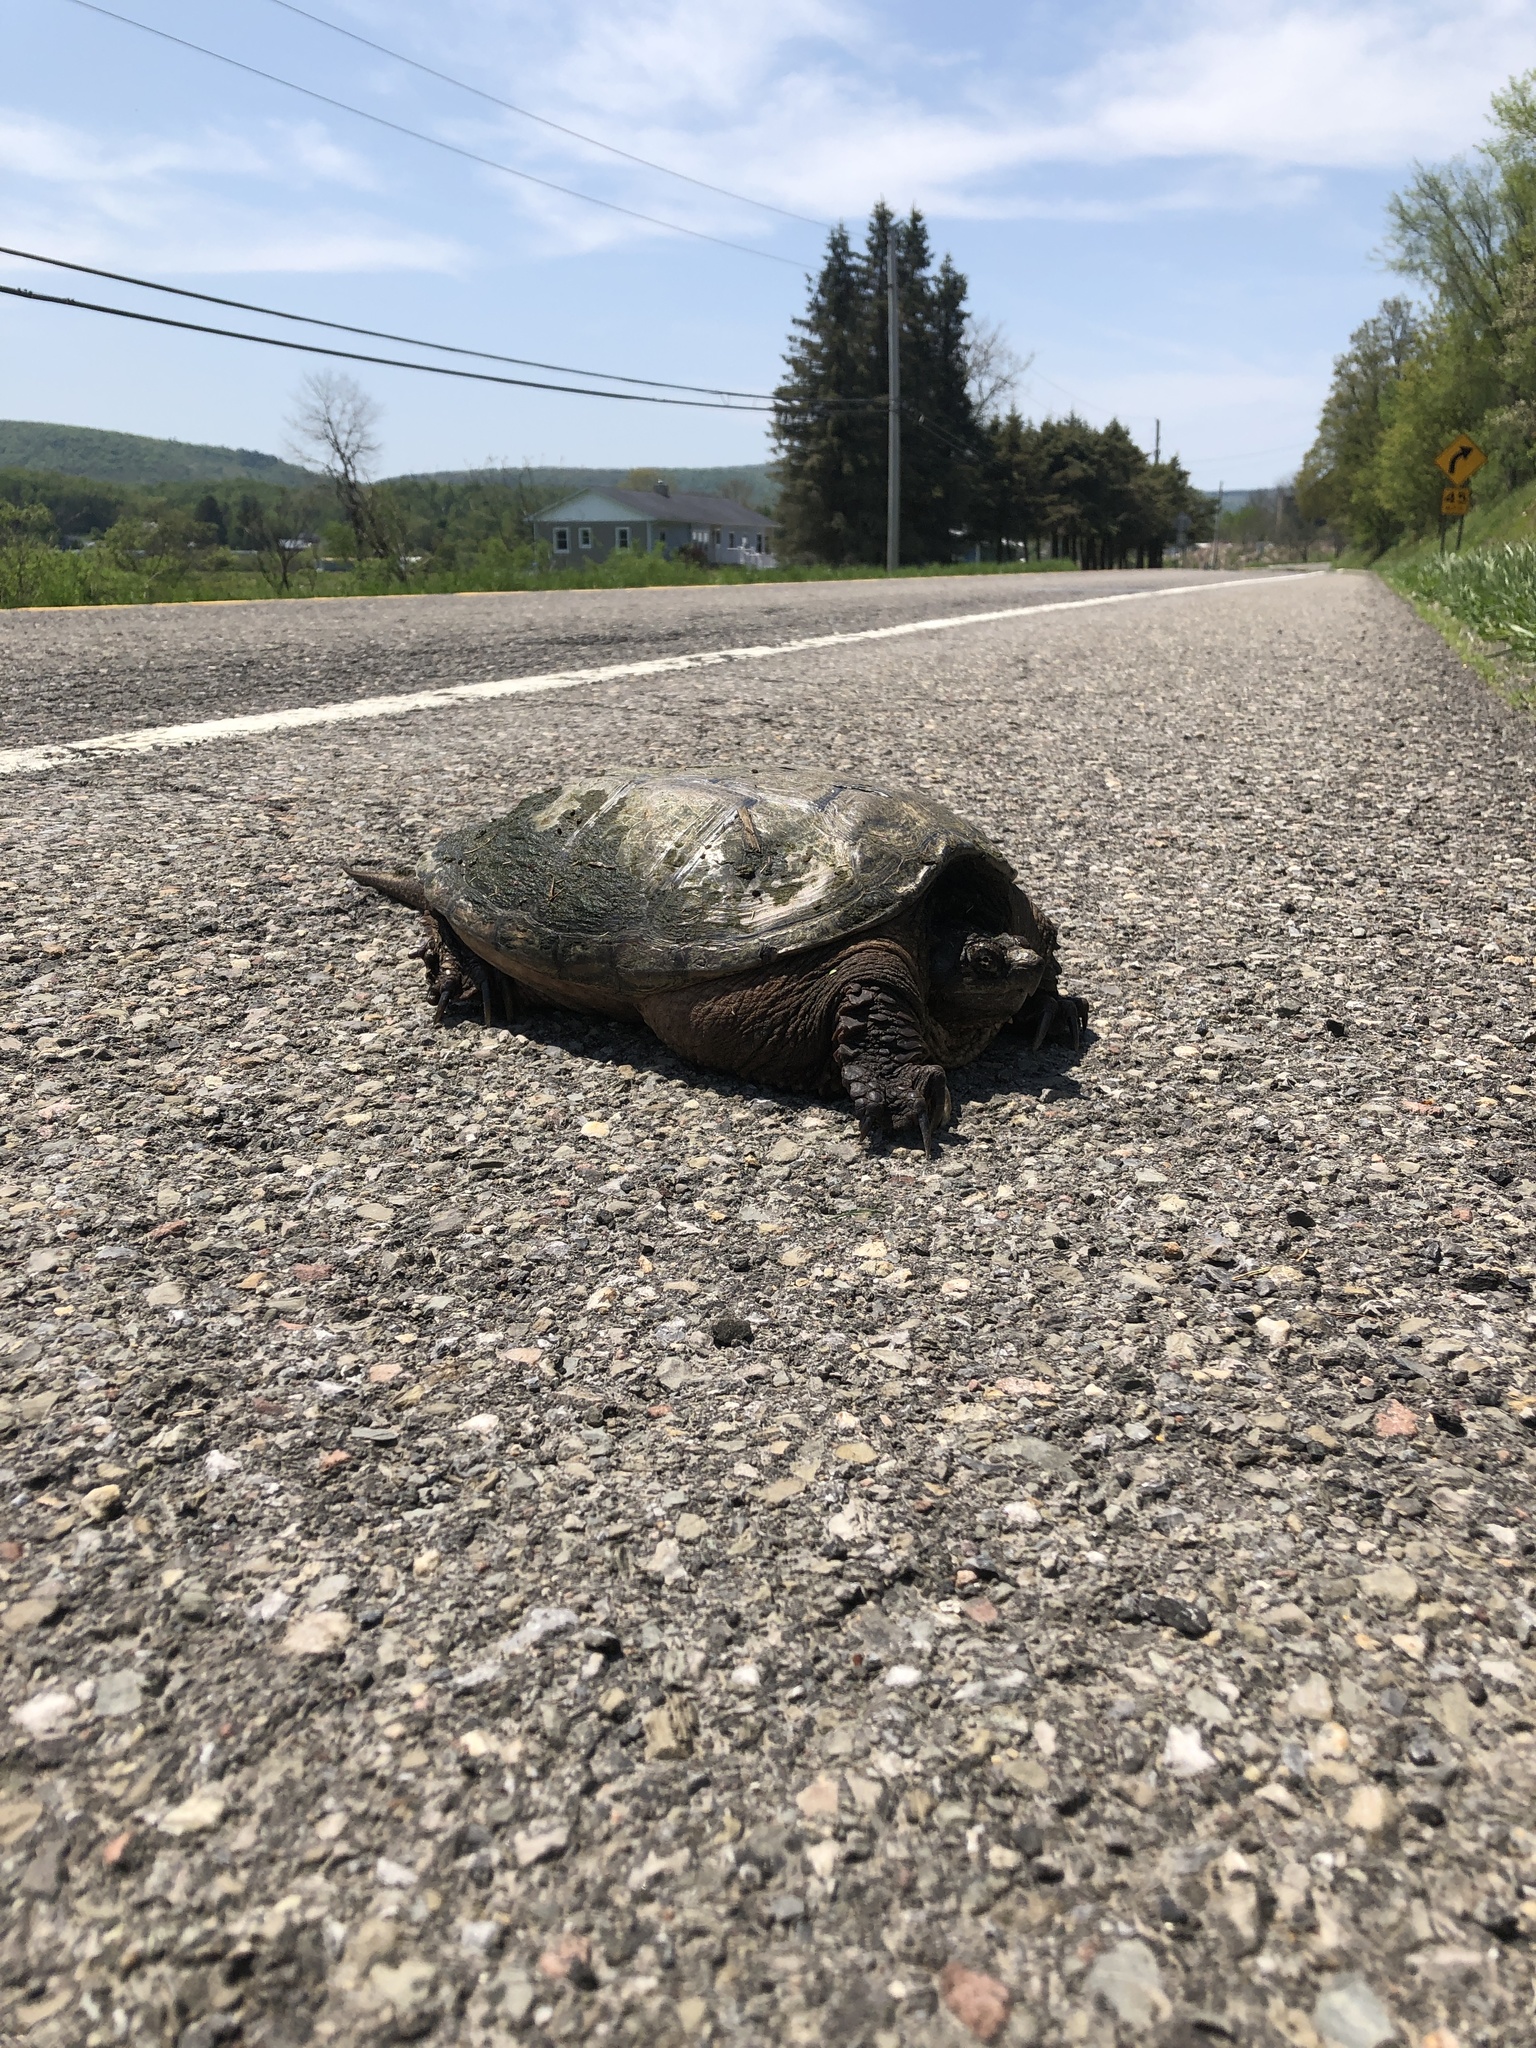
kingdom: Animalia
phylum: Chordata
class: Testudines
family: Chelydridae
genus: Chelydra
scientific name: Chelydra serpentina
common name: Common snapping turtle
